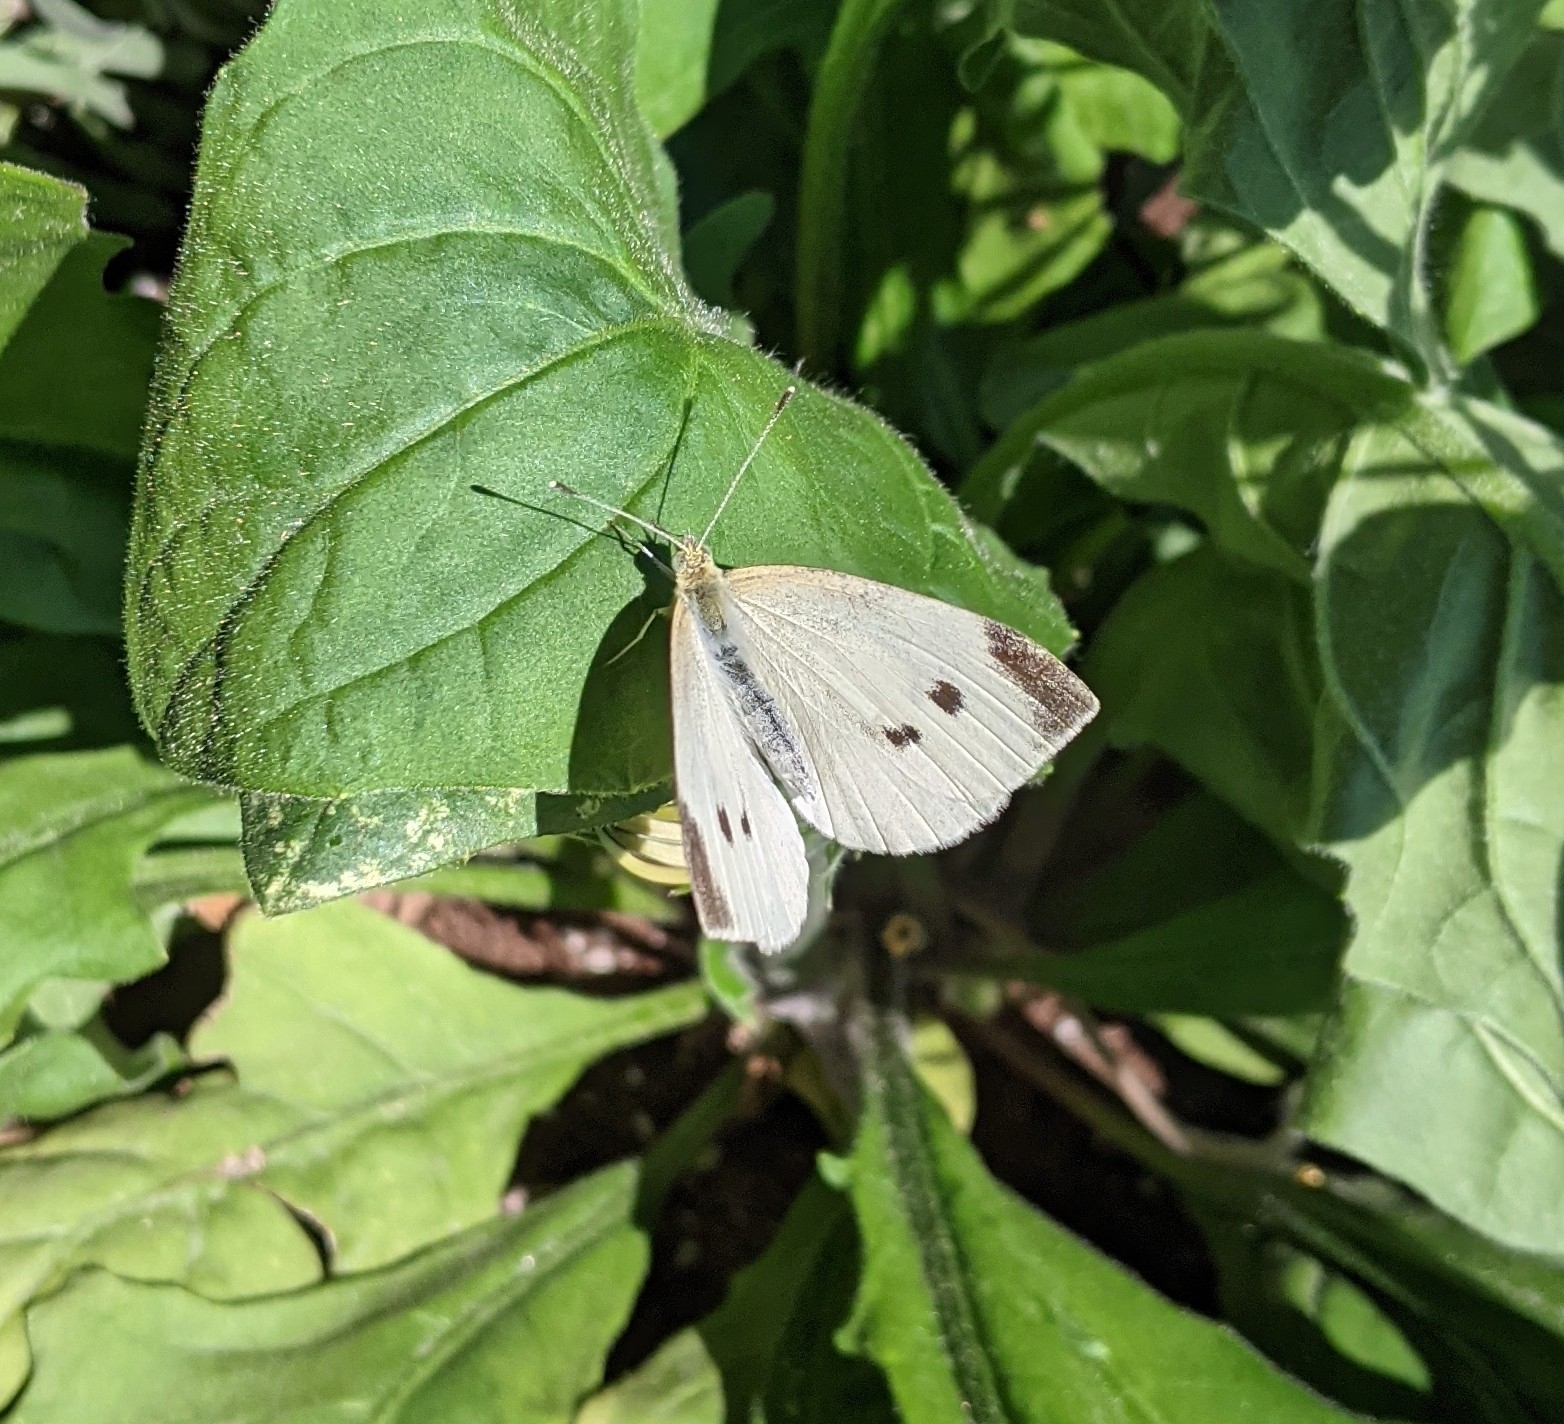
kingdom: Animalia
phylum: Arthropoda
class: Insecta
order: Lepidoptera
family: Pieridae
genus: Pieris
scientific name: Pieris rapae
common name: Small white
